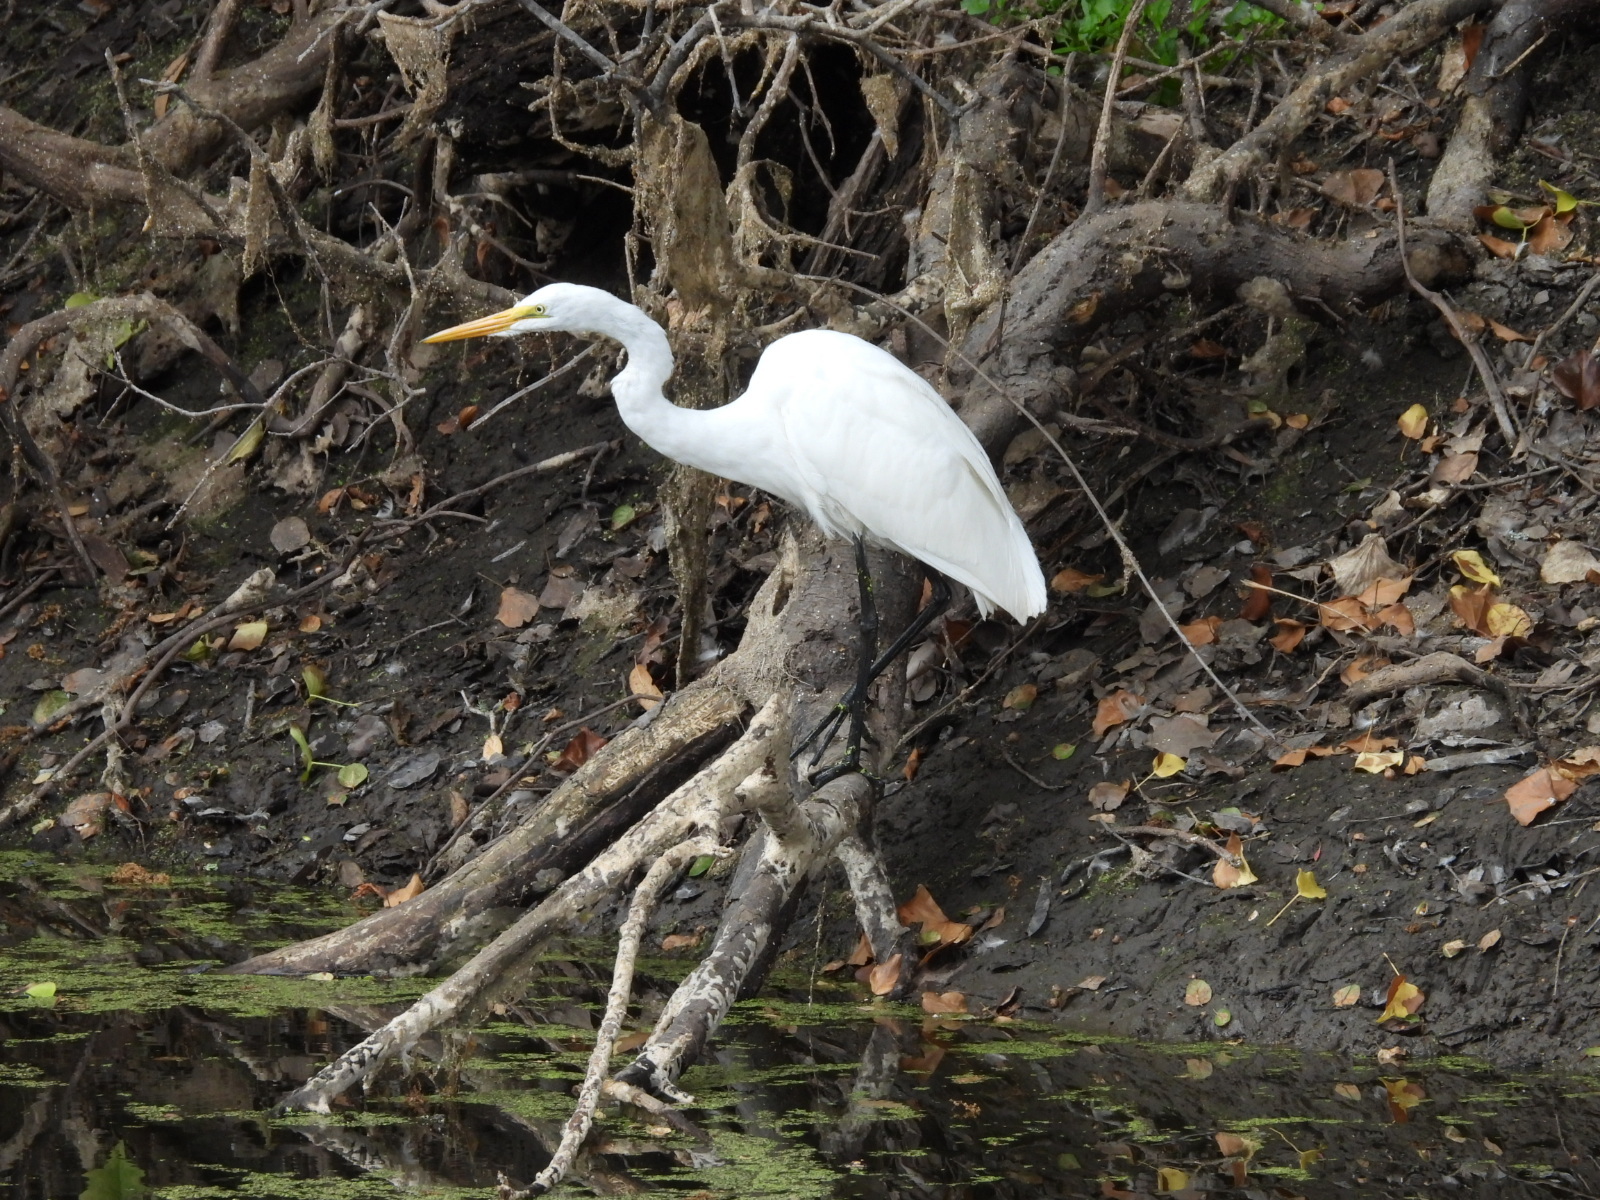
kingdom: Animalia
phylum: Chordata
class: Aves
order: Pelecaniformes
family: Ardeidae
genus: Ardea
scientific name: Ardea alba
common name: Great egret
